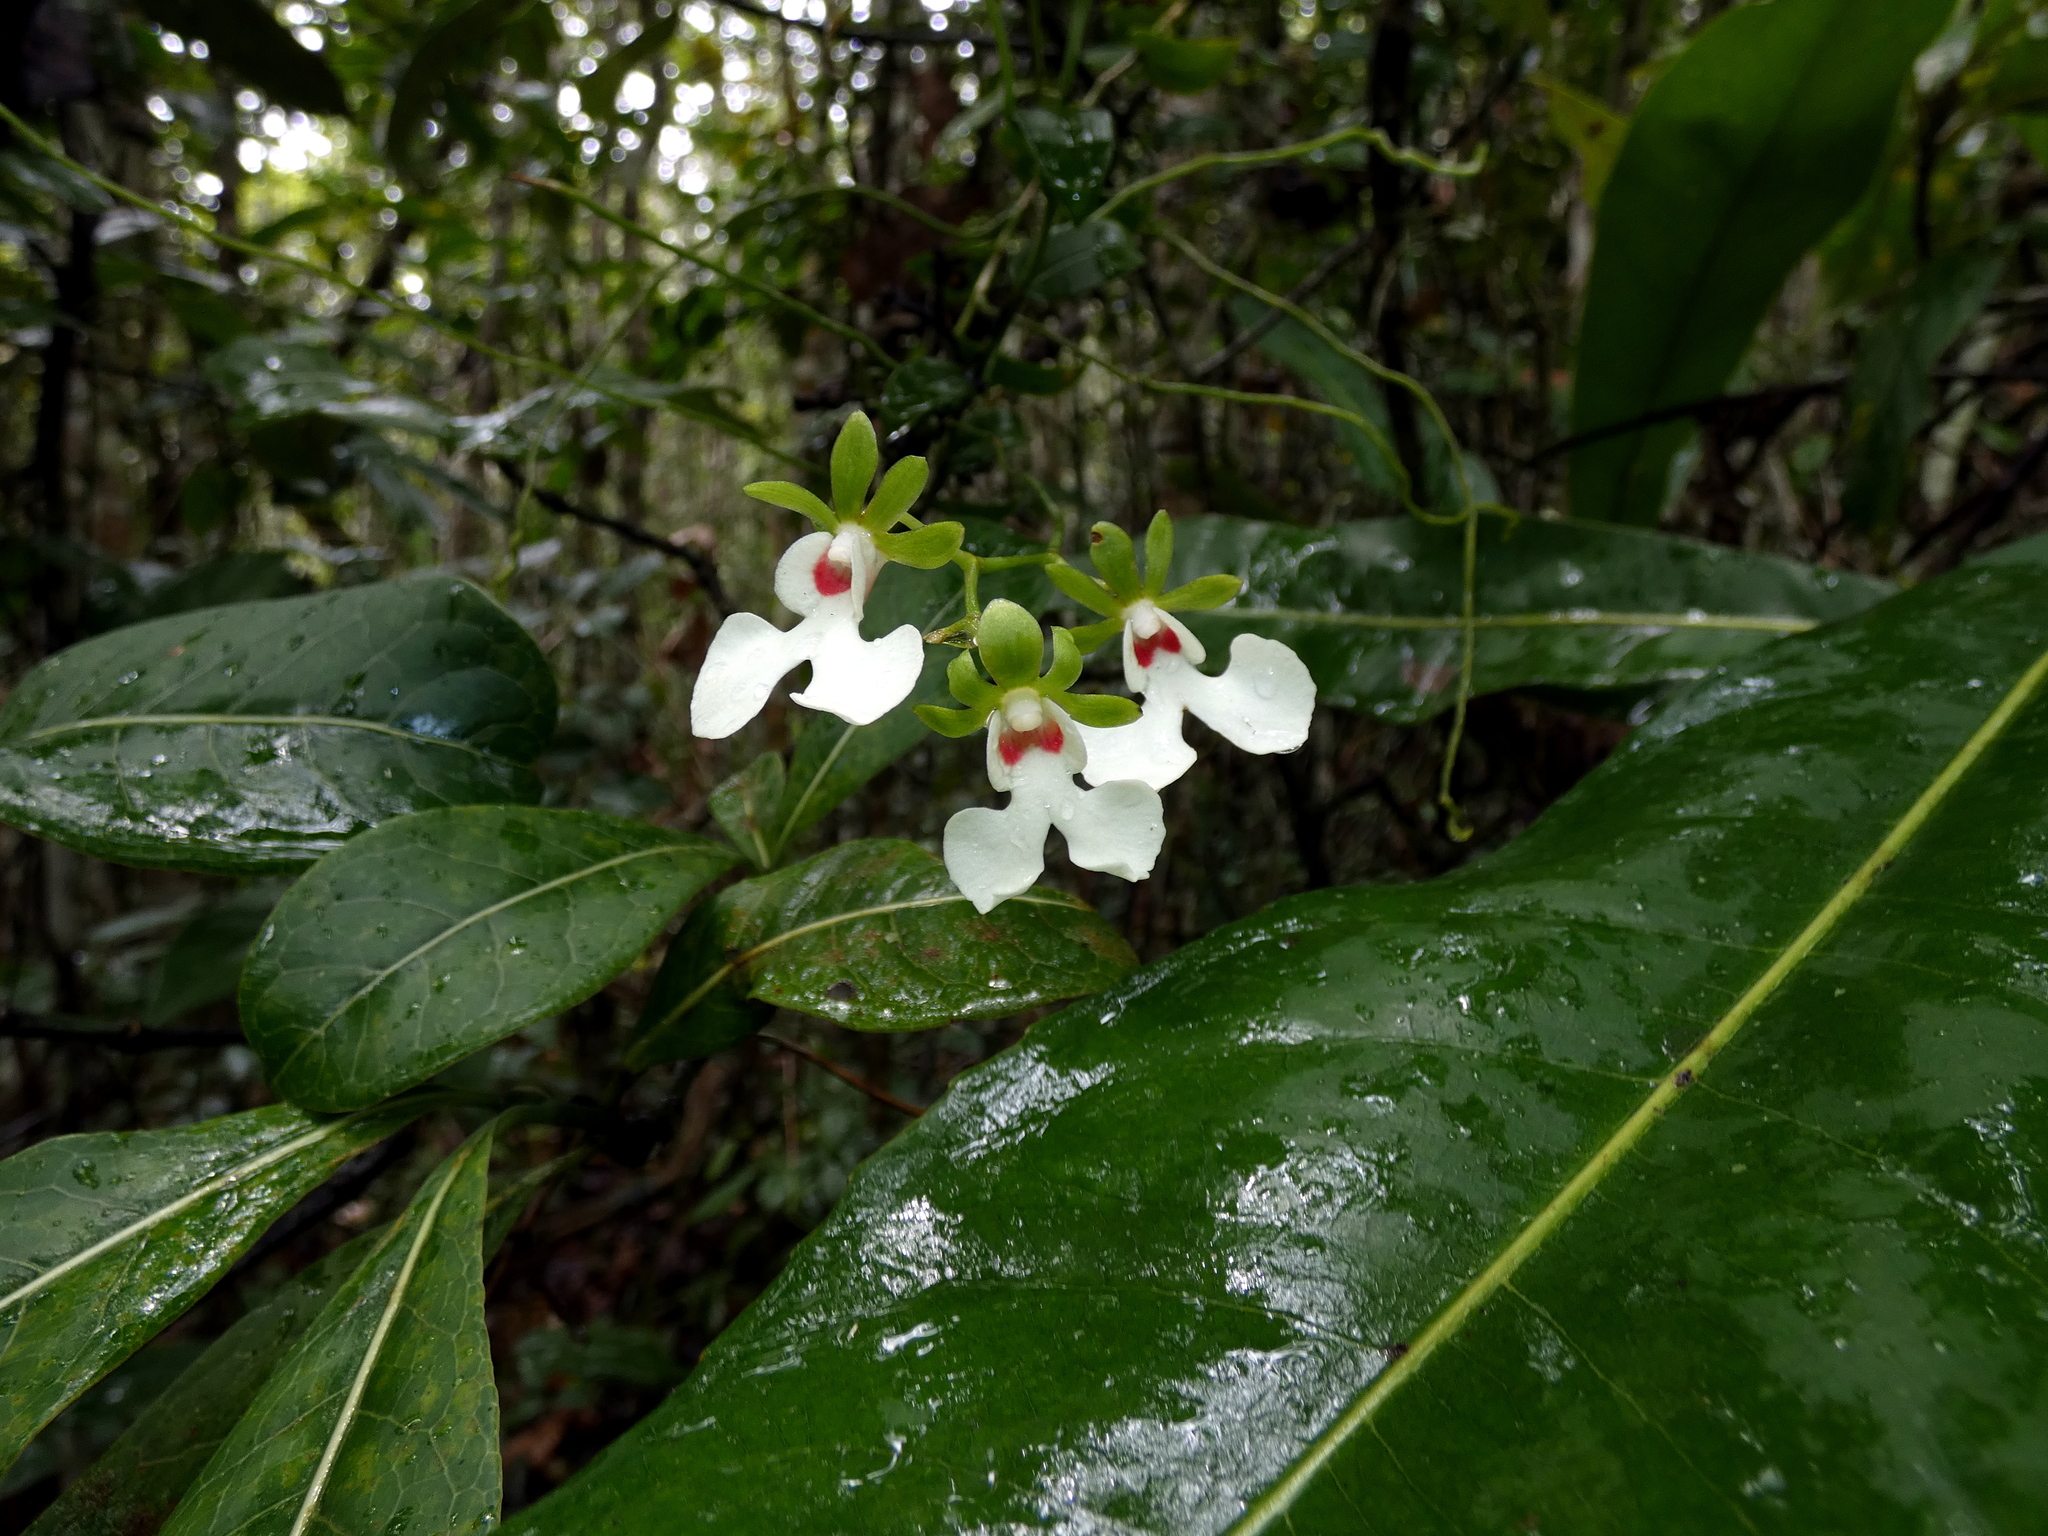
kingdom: Plantae
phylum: Tracheophyta
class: Liliopsida
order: Asparagales
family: Orchidaceae
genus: Oeonia
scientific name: Oeonia rosea
